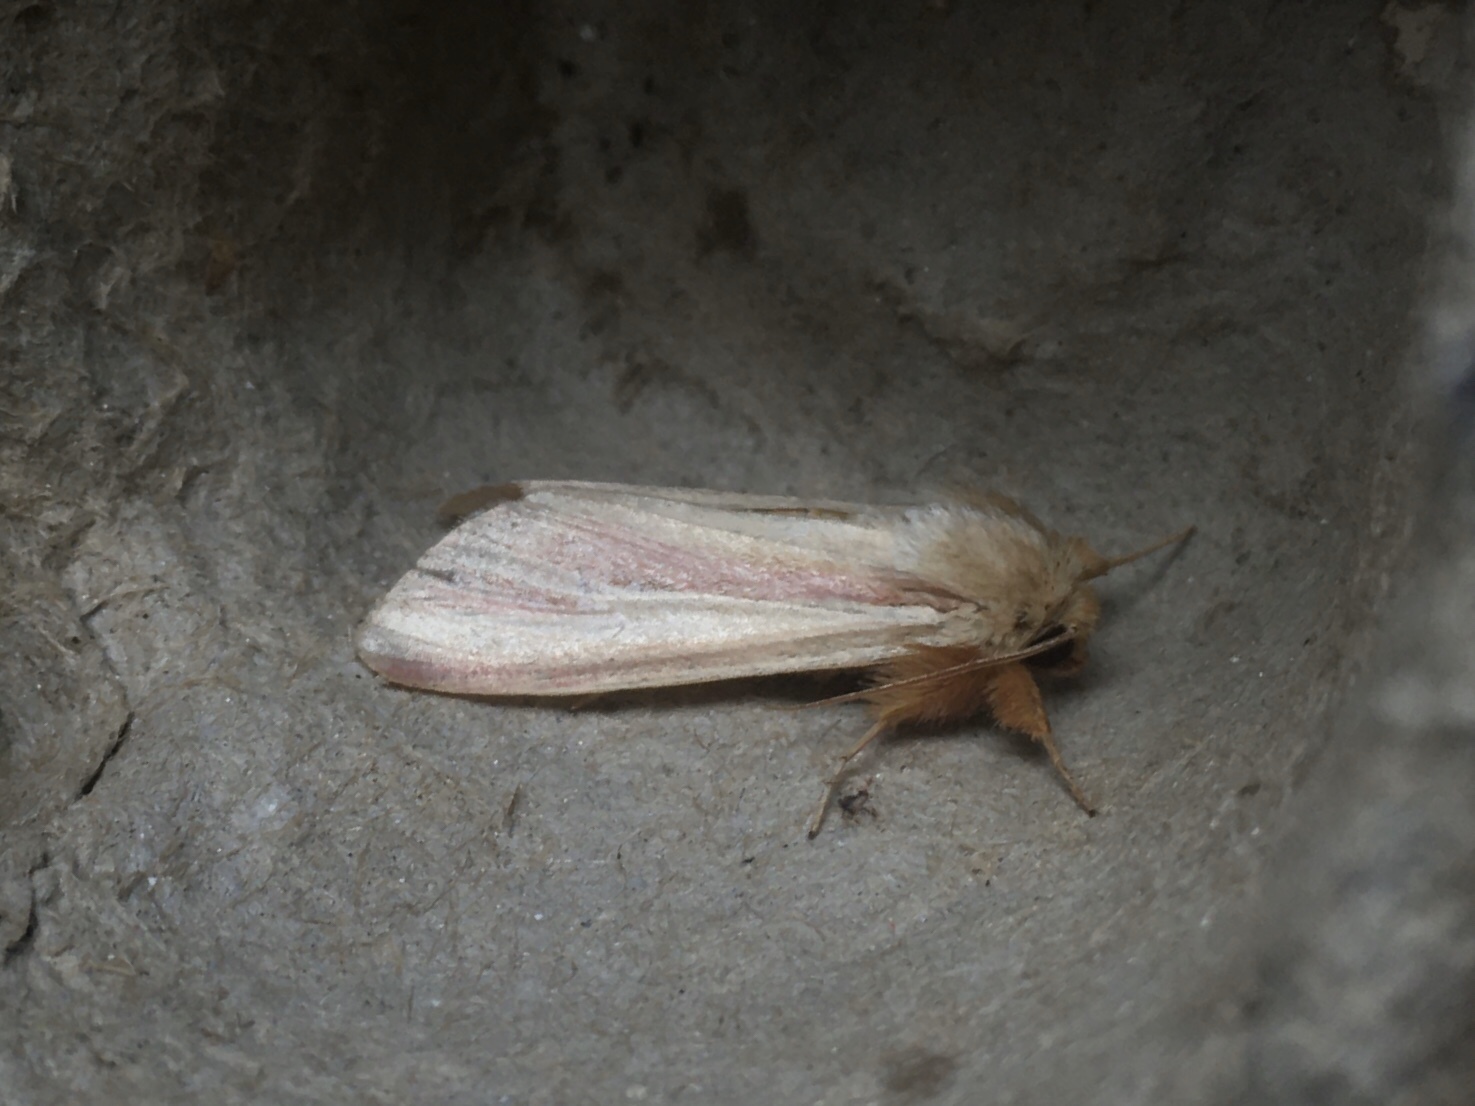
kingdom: Animalia
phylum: Arthropoda
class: Insecta
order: Lepidoptera
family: Noctuidae
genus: Dargida
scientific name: Dargida rubripennis
